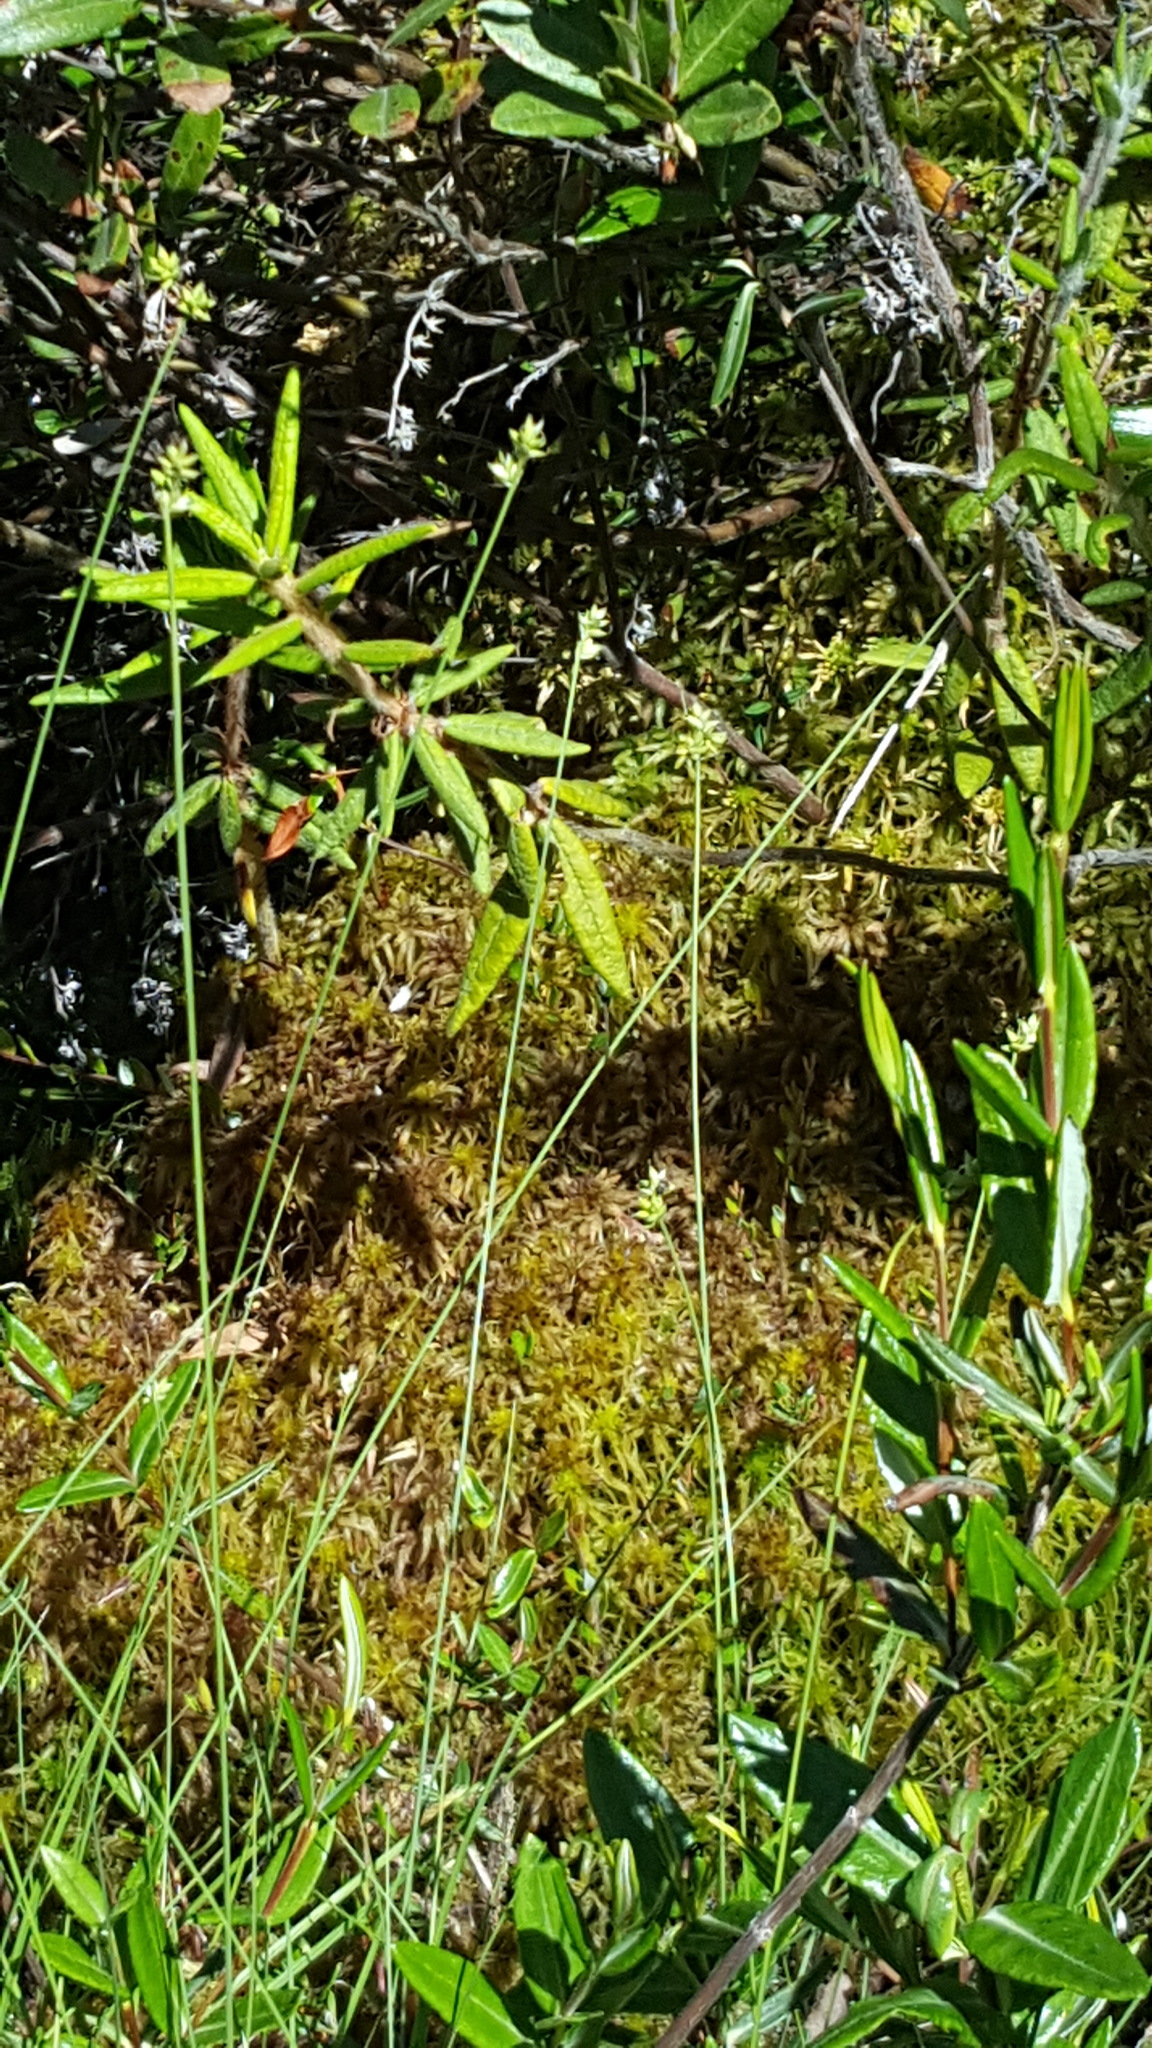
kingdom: Plantae
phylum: Tracheophyta
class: Liliopsida
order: Poales
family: Cyperaceae
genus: Carex
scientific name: Carex tenuiflora
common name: Sparse-flowered sedge
